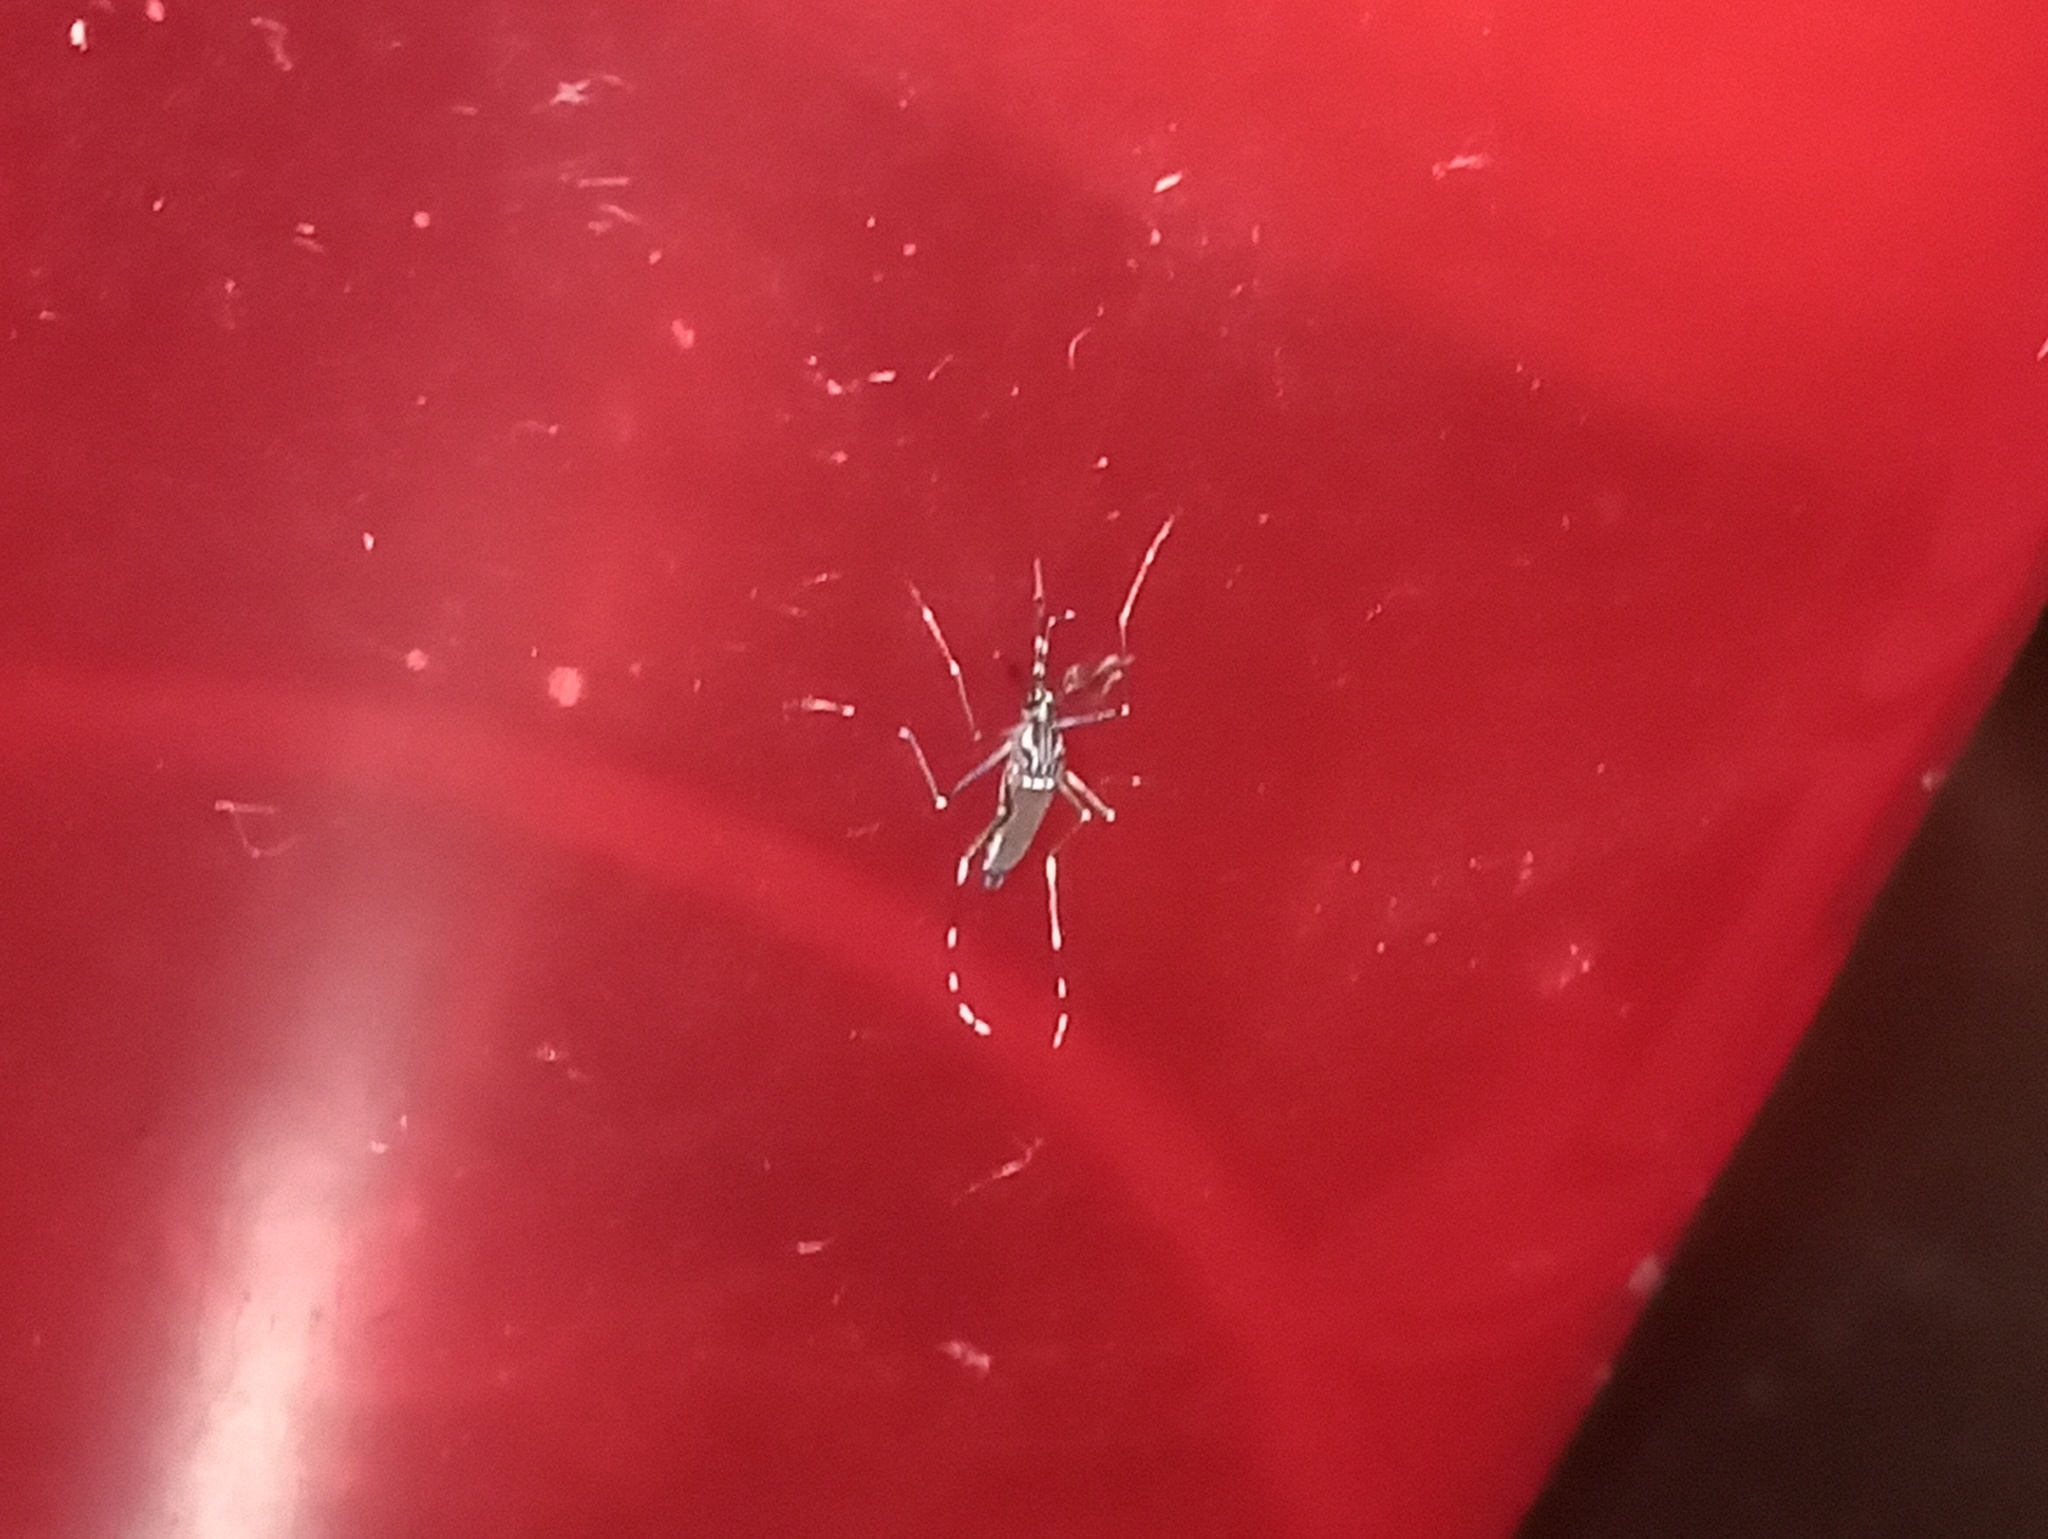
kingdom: Animalia
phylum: Arthropoda
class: Insecta
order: Diptera
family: Culicidae
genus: Aedes
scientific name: Aedes aegypti
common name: Yellow fever mosquito
